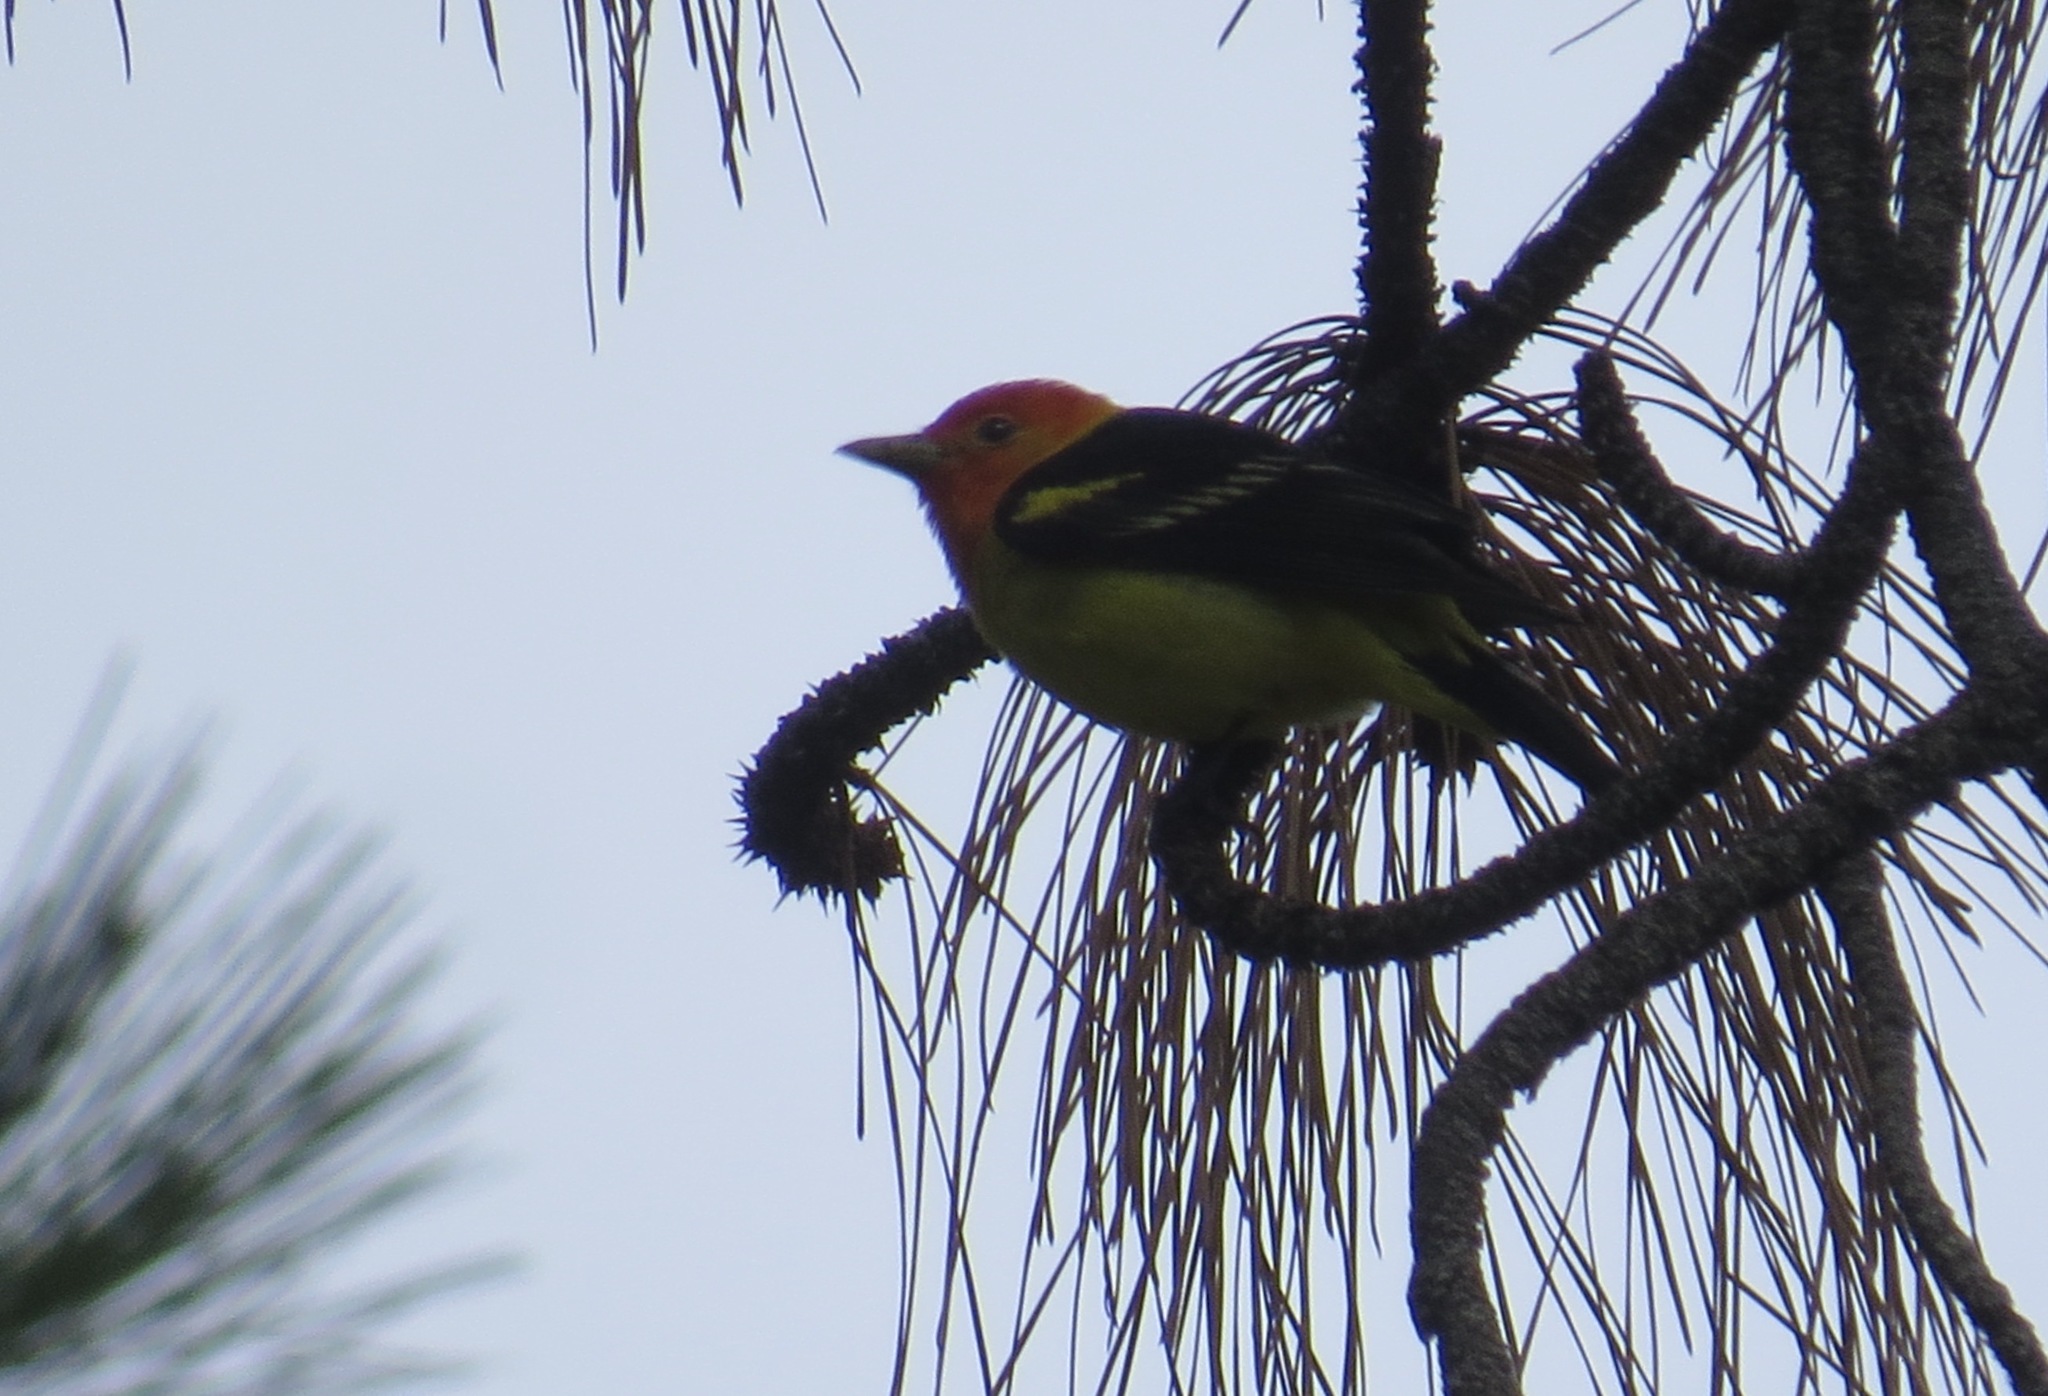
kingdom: Animalia
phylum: Chordata
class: Aves
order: Passeriformes
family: Cardinalidae
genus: Piranga
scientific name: Piranga ludoviciana
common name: Western tanager
